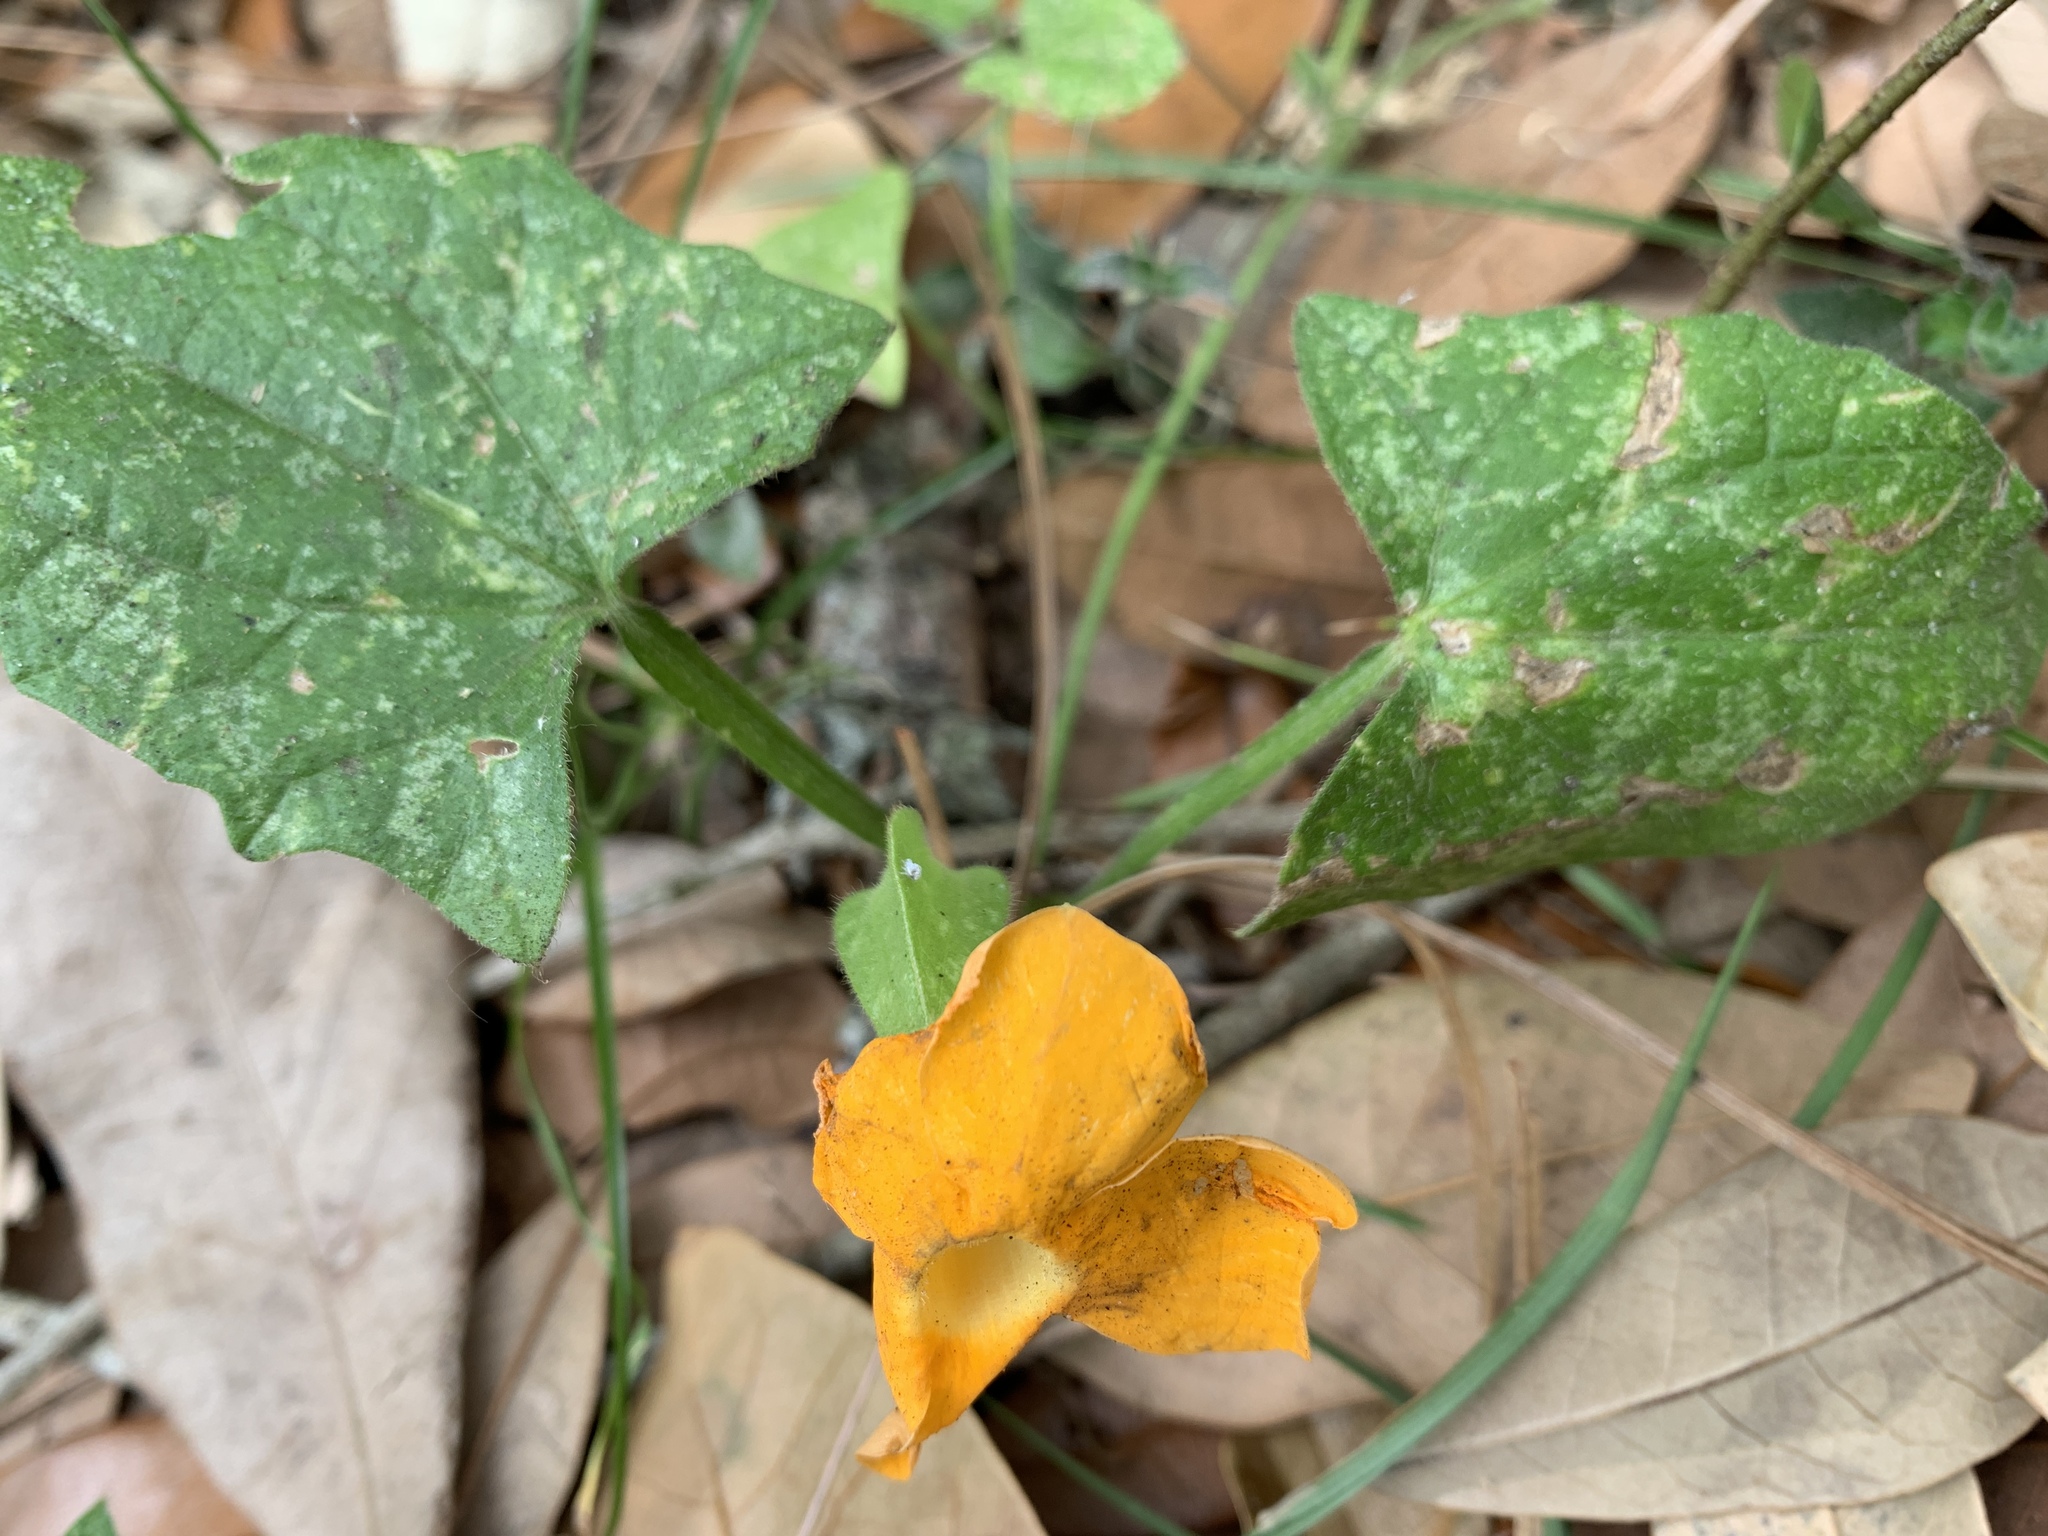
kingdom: Plantae
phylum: Tracheophyta
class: Magnoliopsida
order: Lamiales
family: Acanthaceae
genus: Thunbergia
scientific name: Thunbergia alata
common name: Blackeyed susan vine
